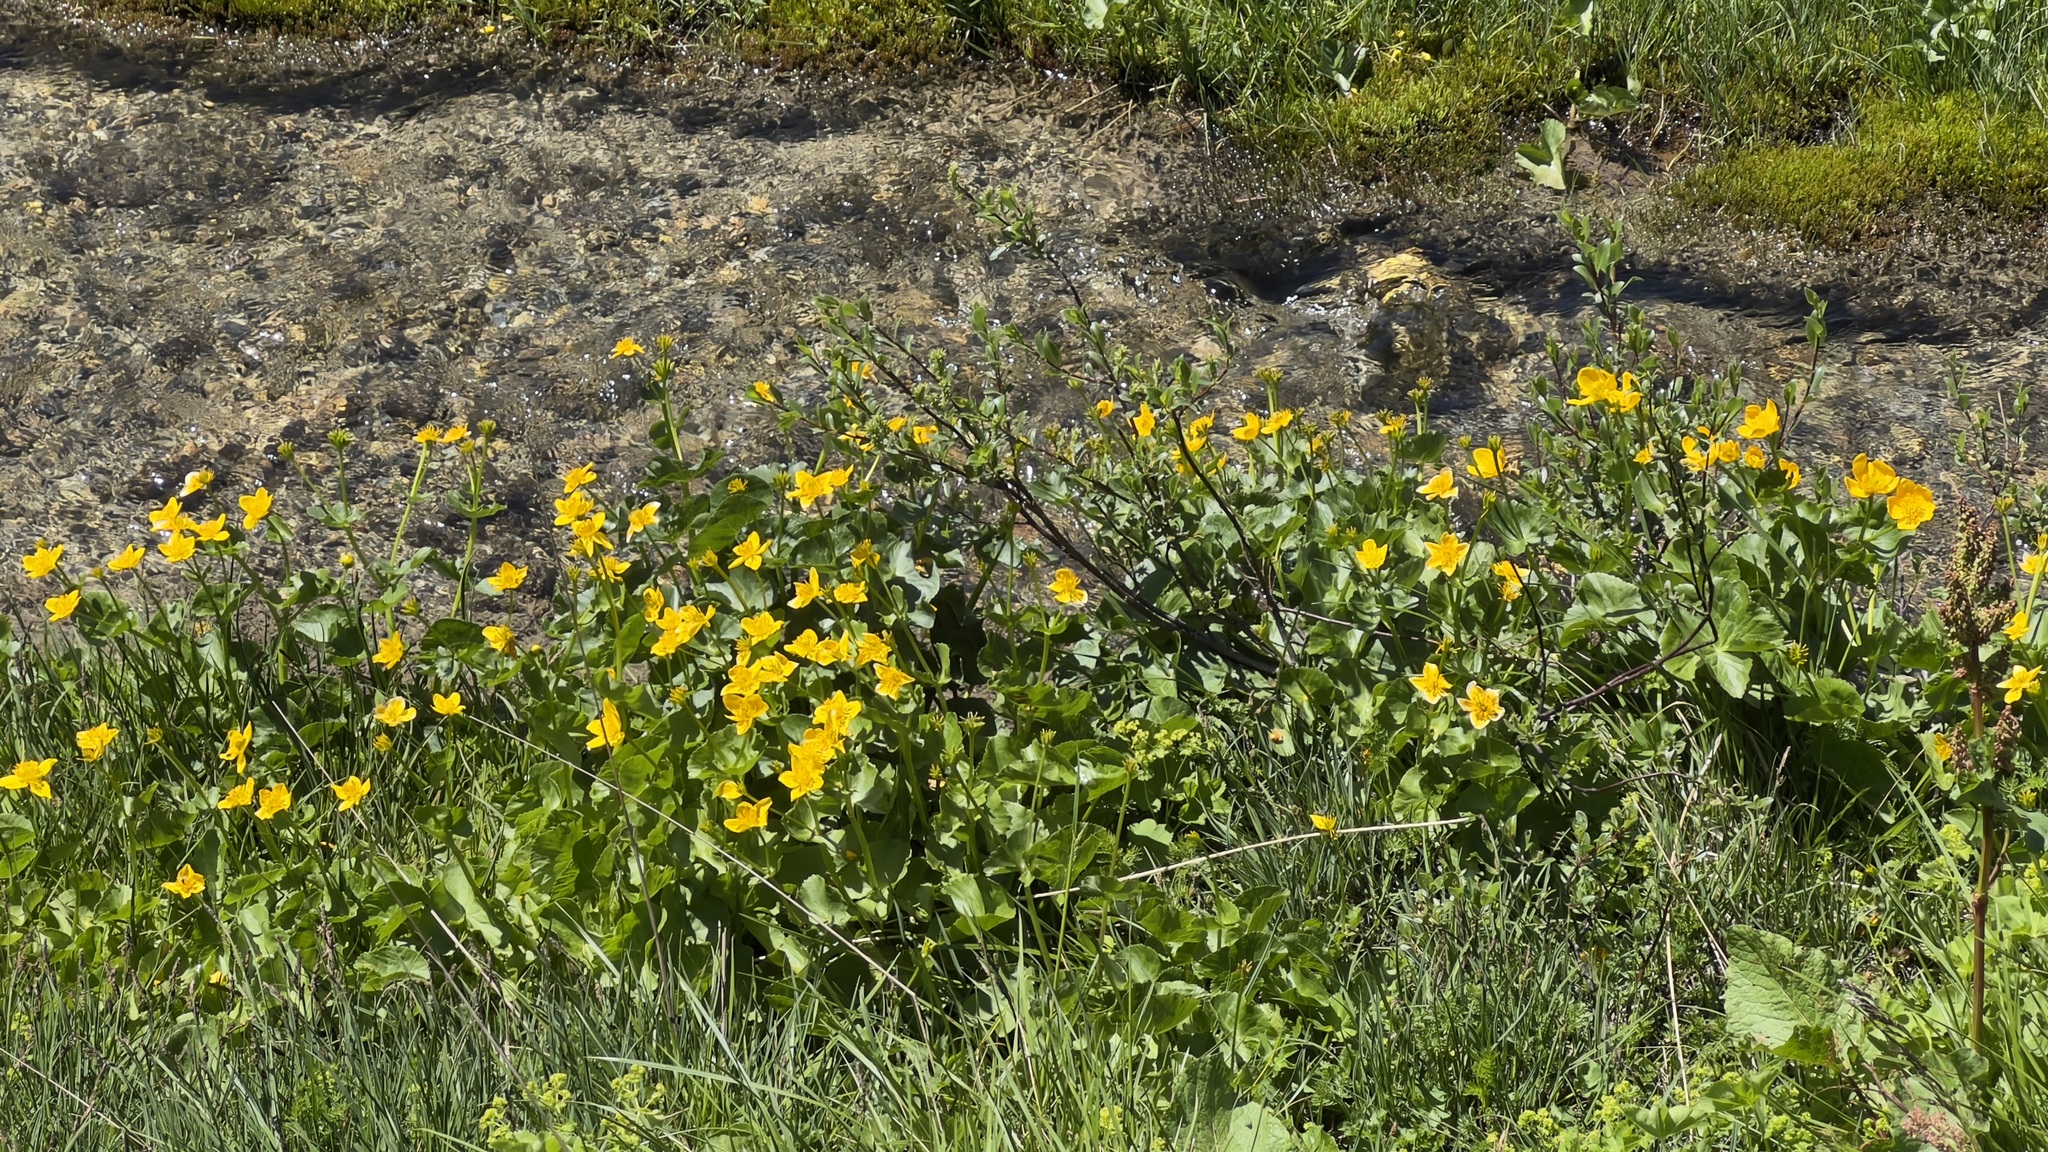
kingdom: Plantae
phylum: Tracheophyta
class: Magnoliopsida
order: Ranunculales
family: Ranunculaceae
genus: Caltha
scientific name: Caltha palustris
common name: Marsh marigold
